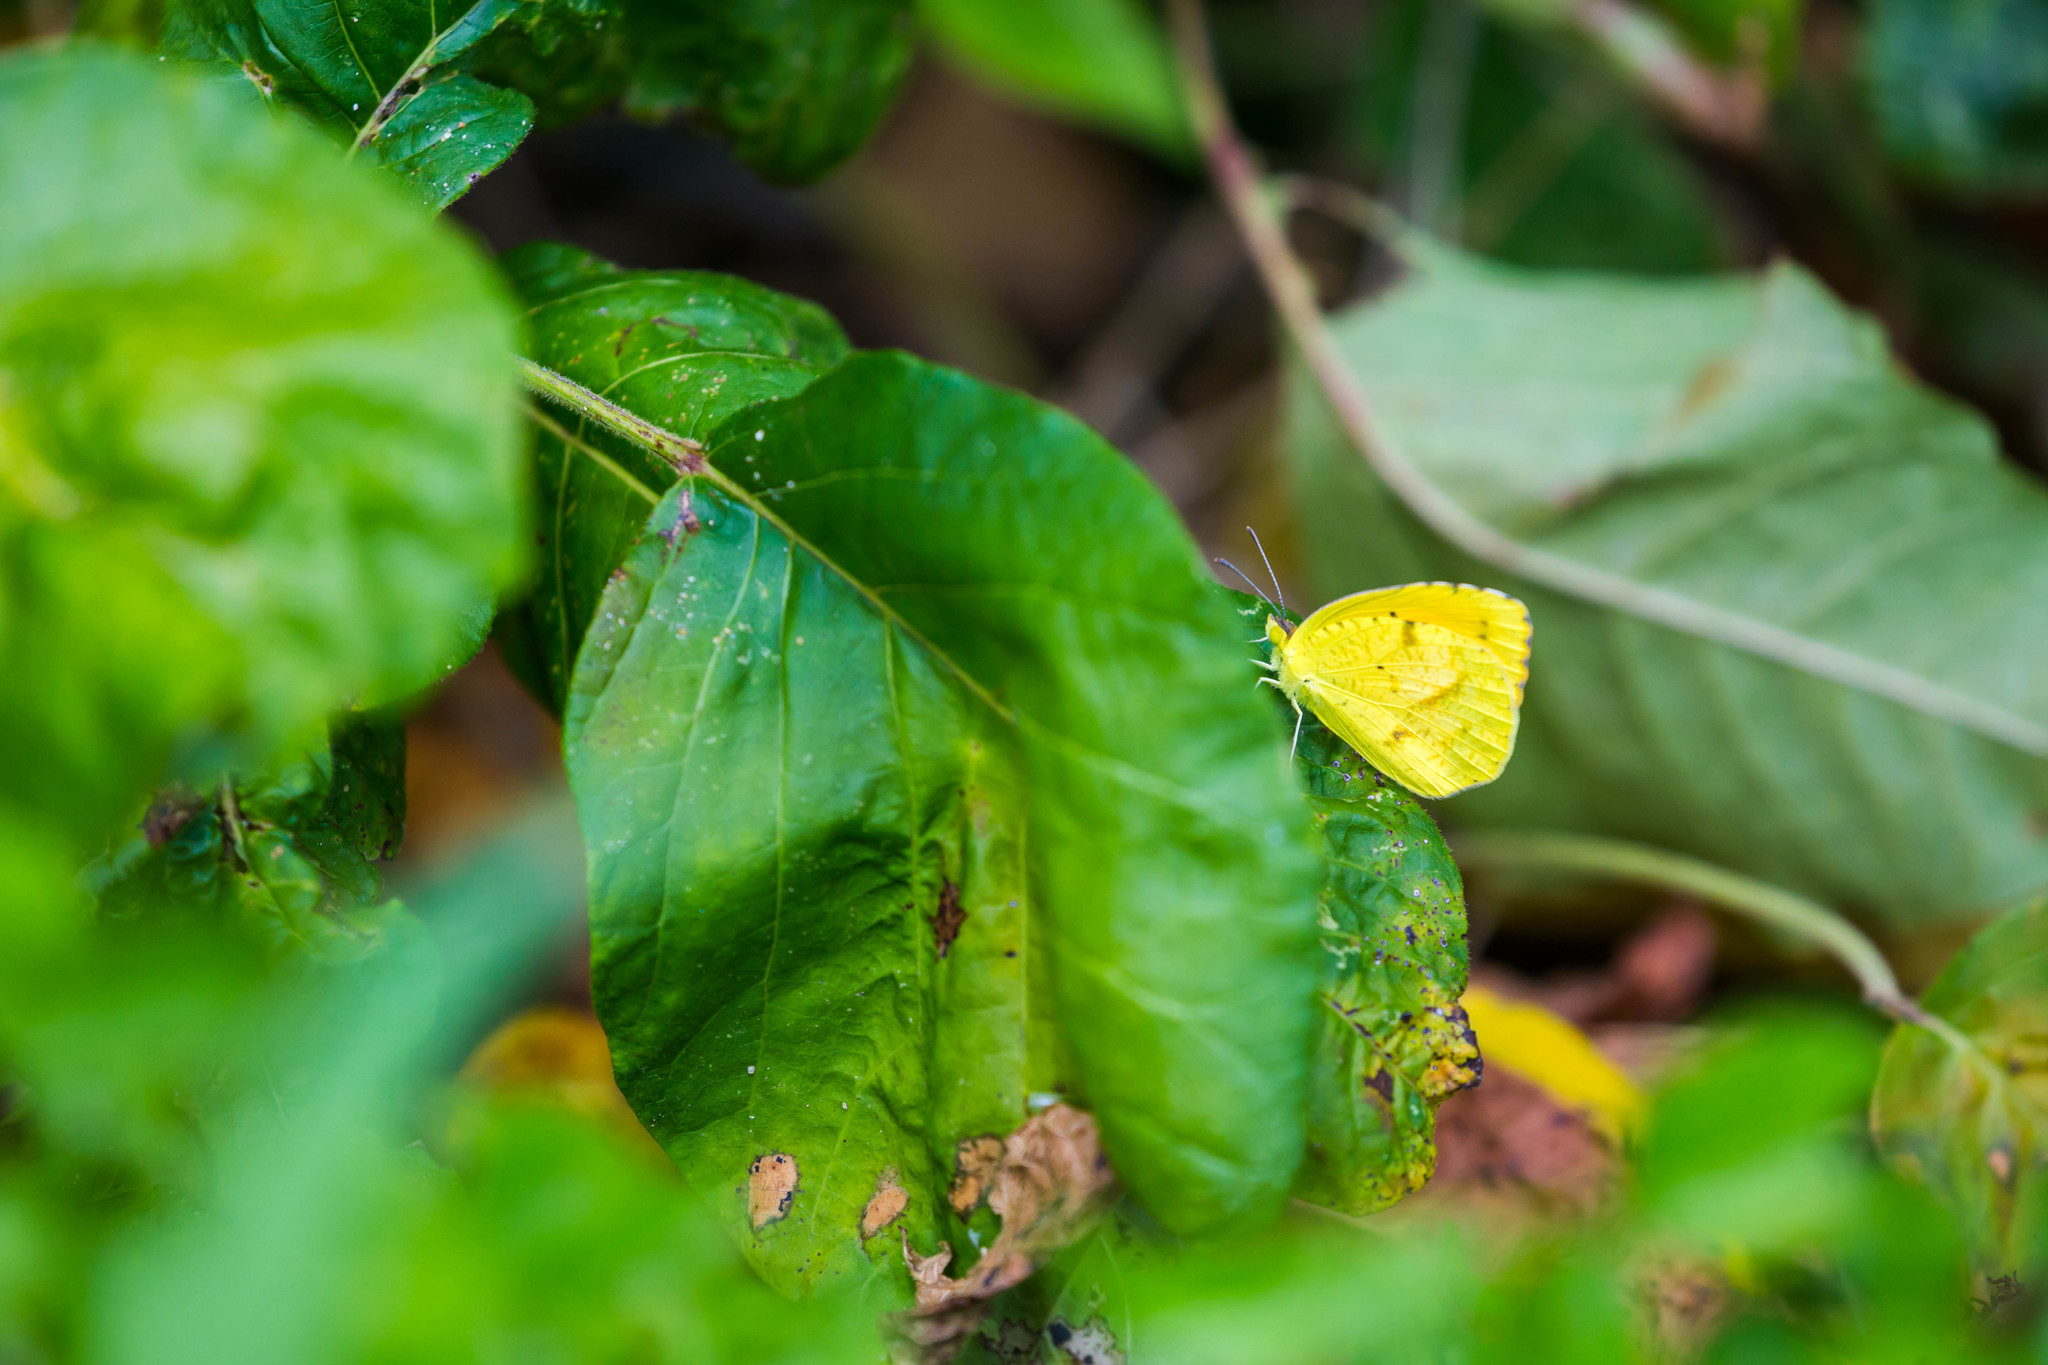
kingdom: Animalia
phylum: Arthropoda
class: Insecta
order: Lepidoptera
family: Pieridae
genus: Abaeis
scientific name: Abaeis nicippe
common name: Sleepy orange
